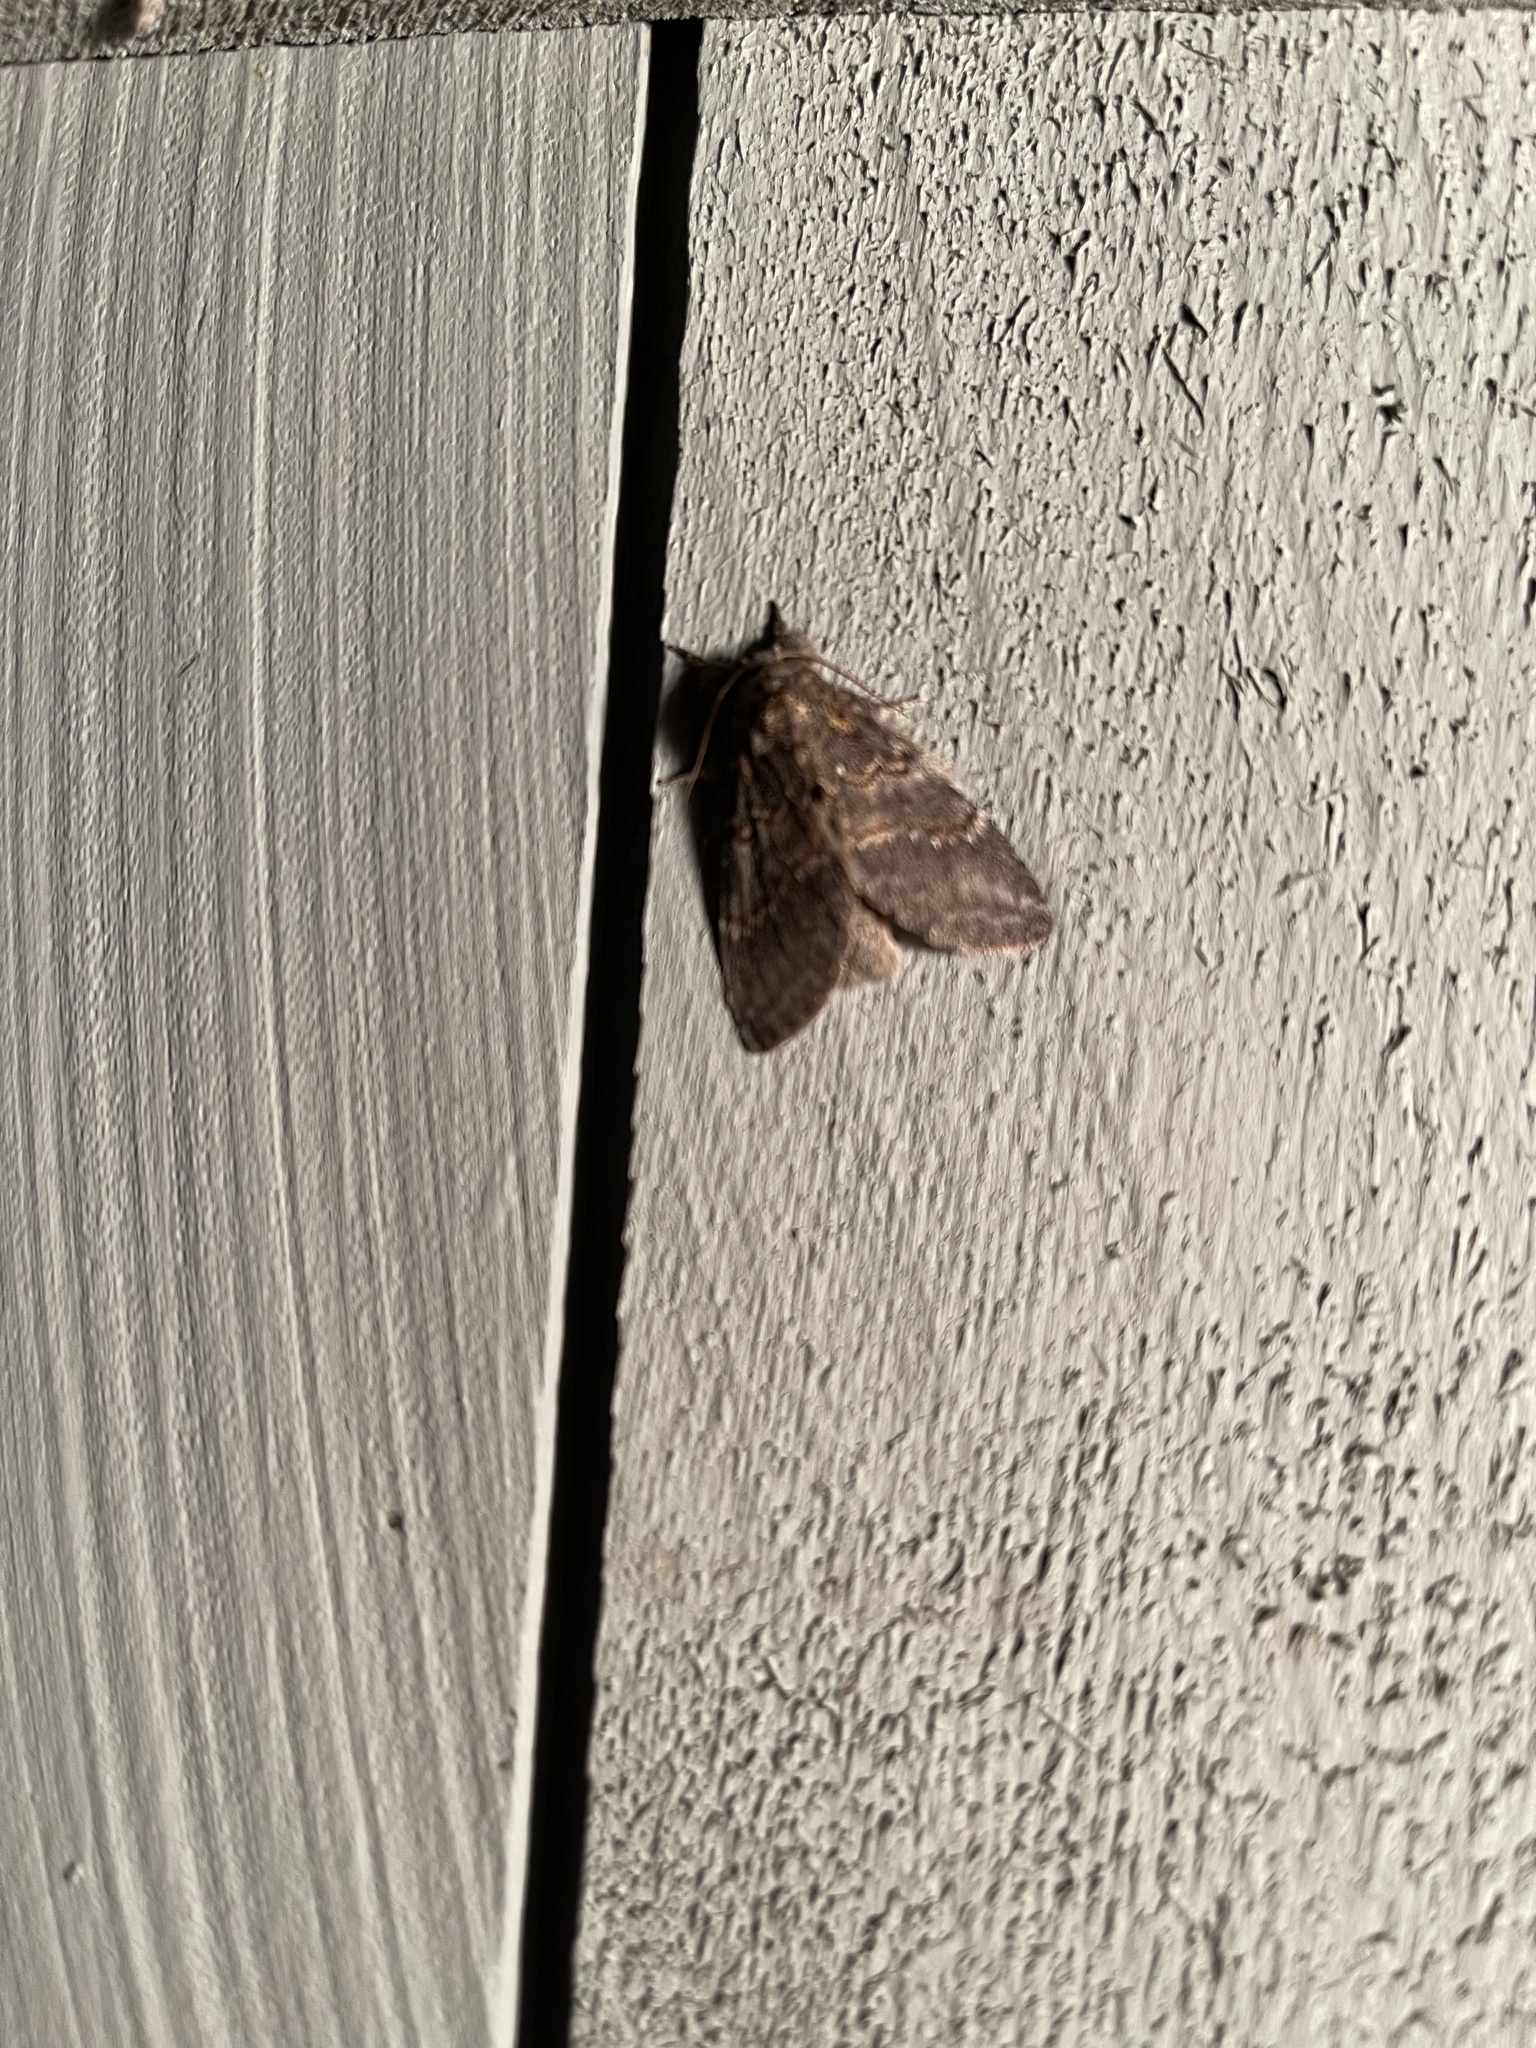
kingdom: Animalia
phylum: Arthropoda
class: Insecta
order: Lepidoptera
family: Notodontidae
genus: Peridea
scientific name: Peridea angulosa
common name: Angulose prominent
